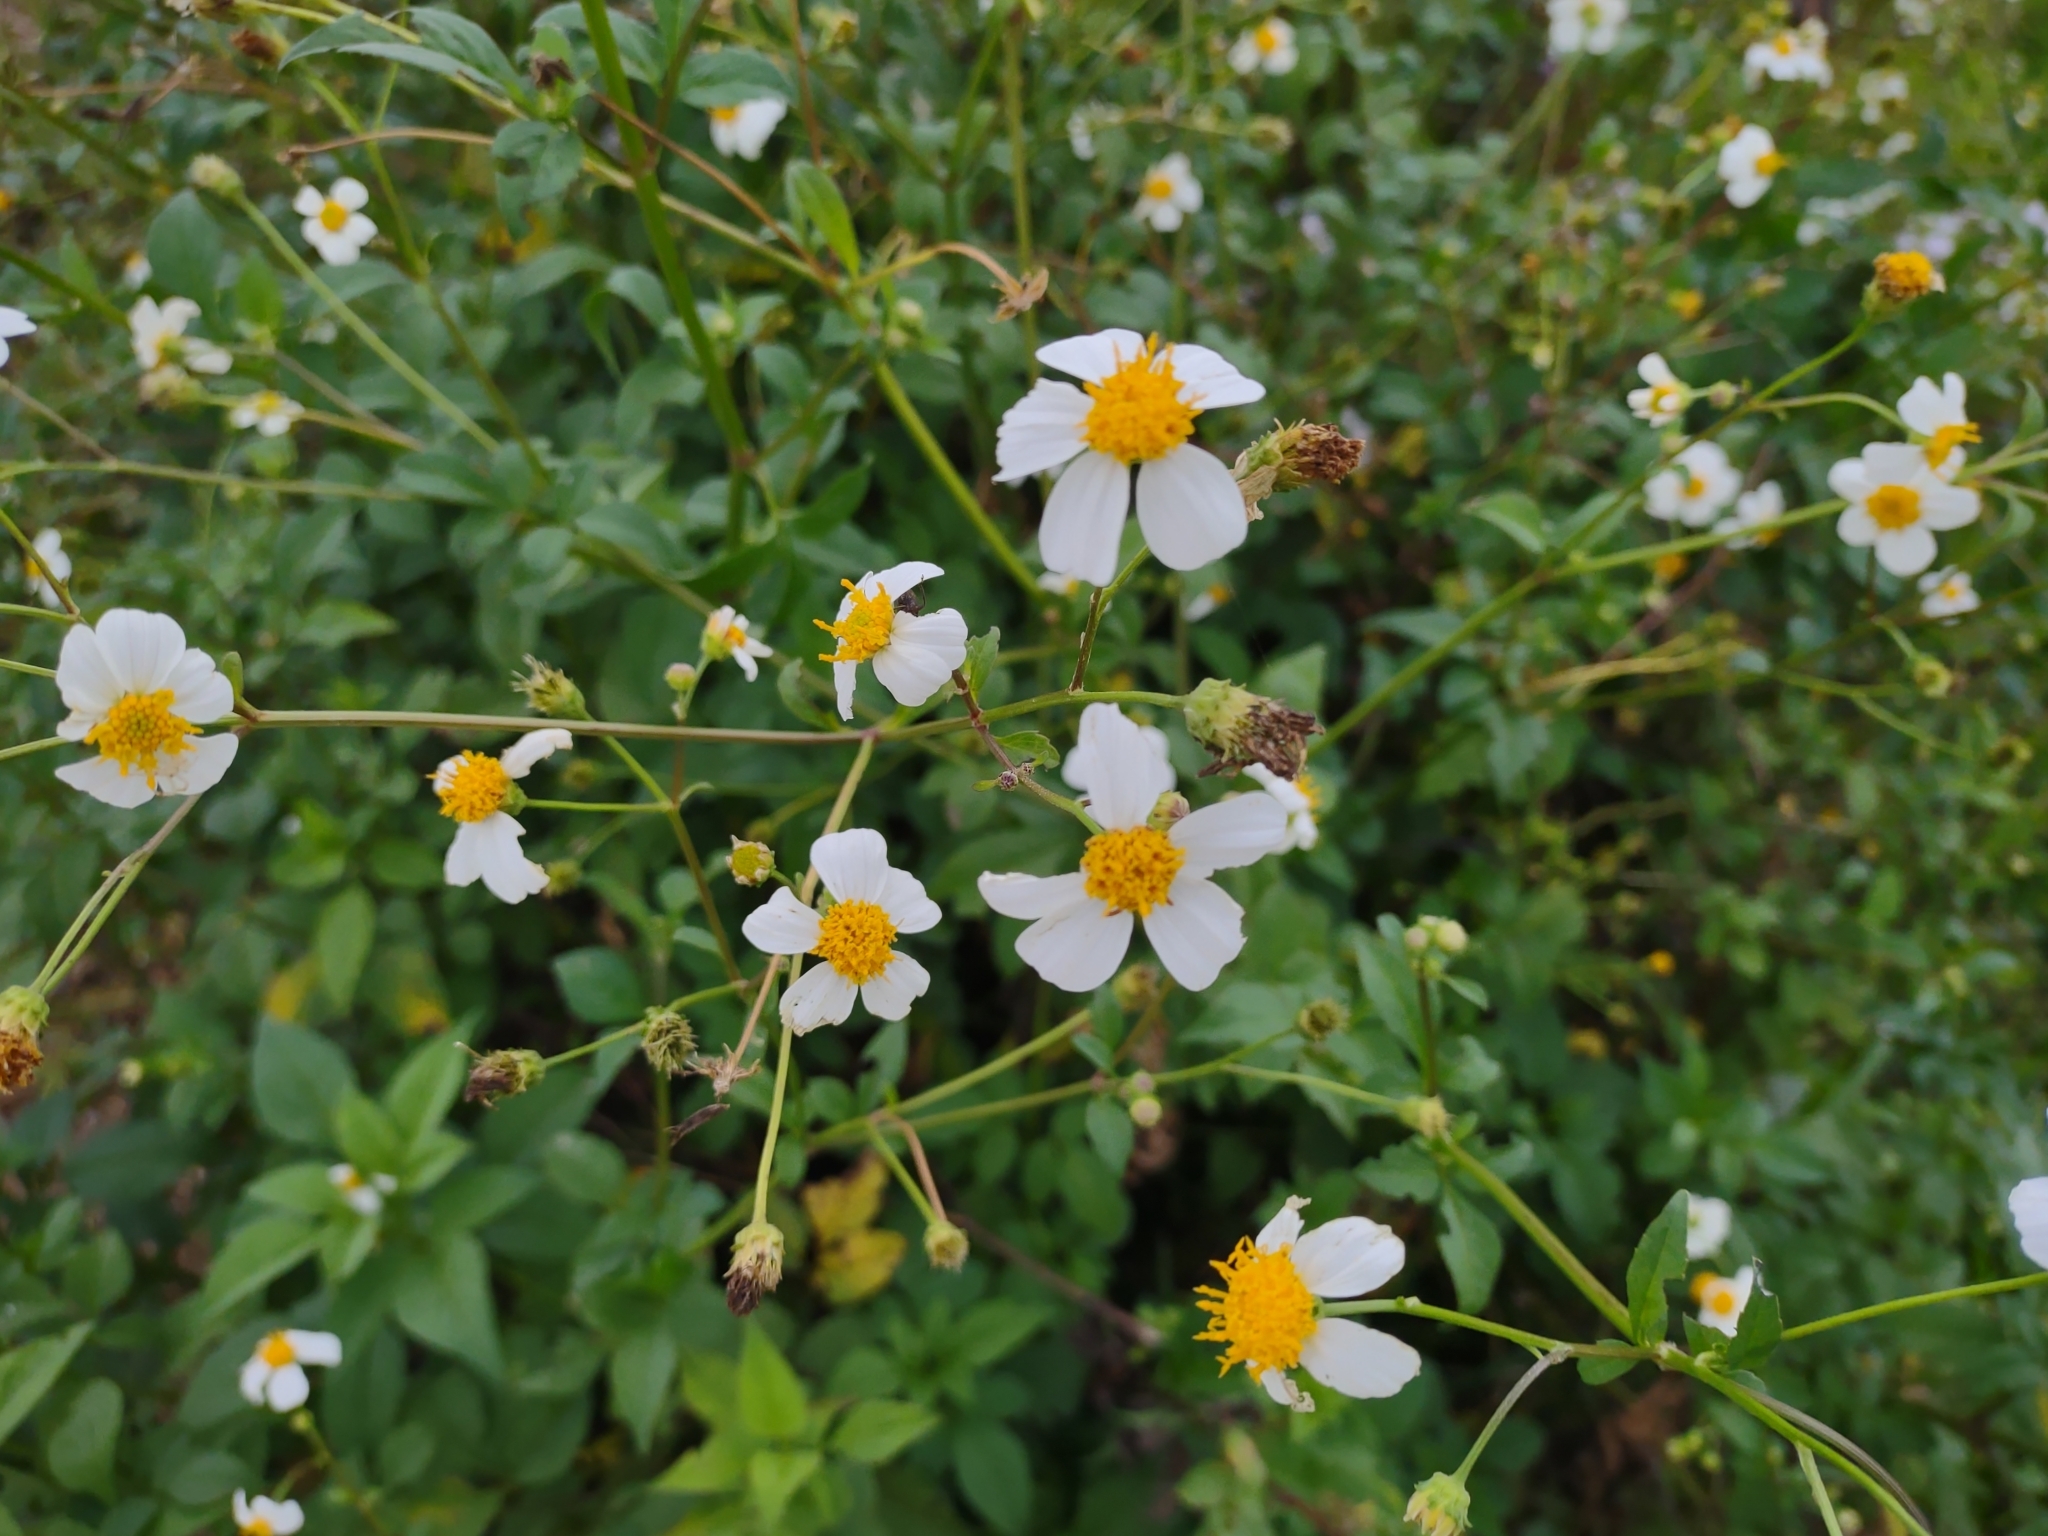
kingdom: Plantae
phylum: Tracheophyta
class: Magnoliopsida
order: Asterales
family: Asteraceae
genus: Bidens
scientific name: Bidens alba
